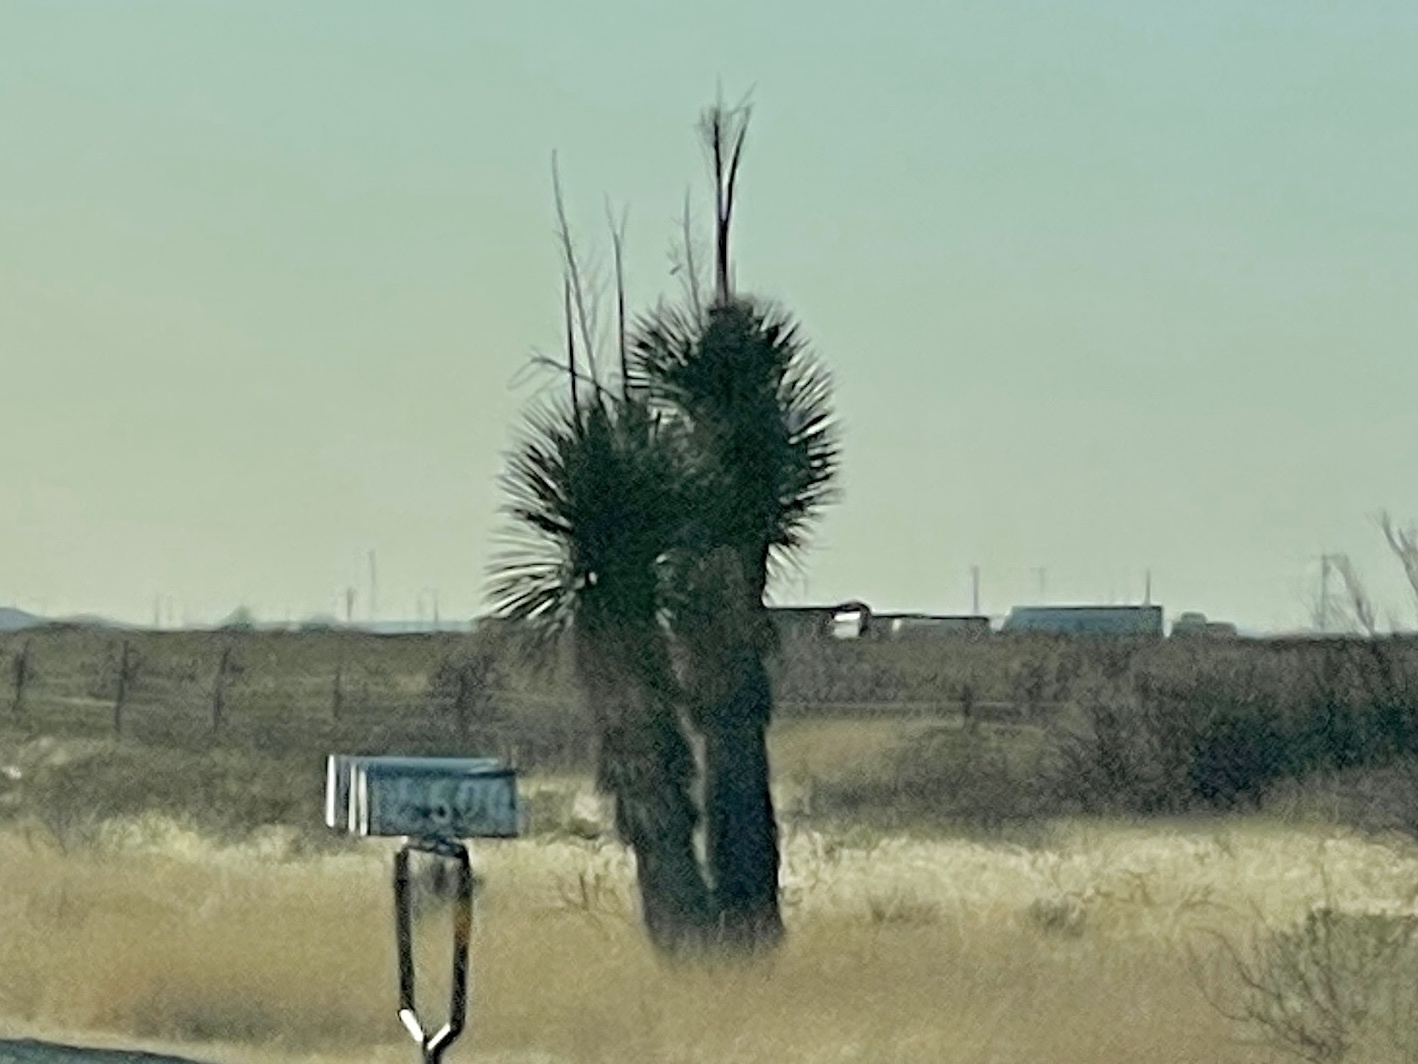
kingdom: Plantae
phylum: Tracheophyta
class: Liliopsida
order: Asparagales
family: Asparagaceae
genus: Yucca
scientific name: Yucca elata
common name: Palmella
